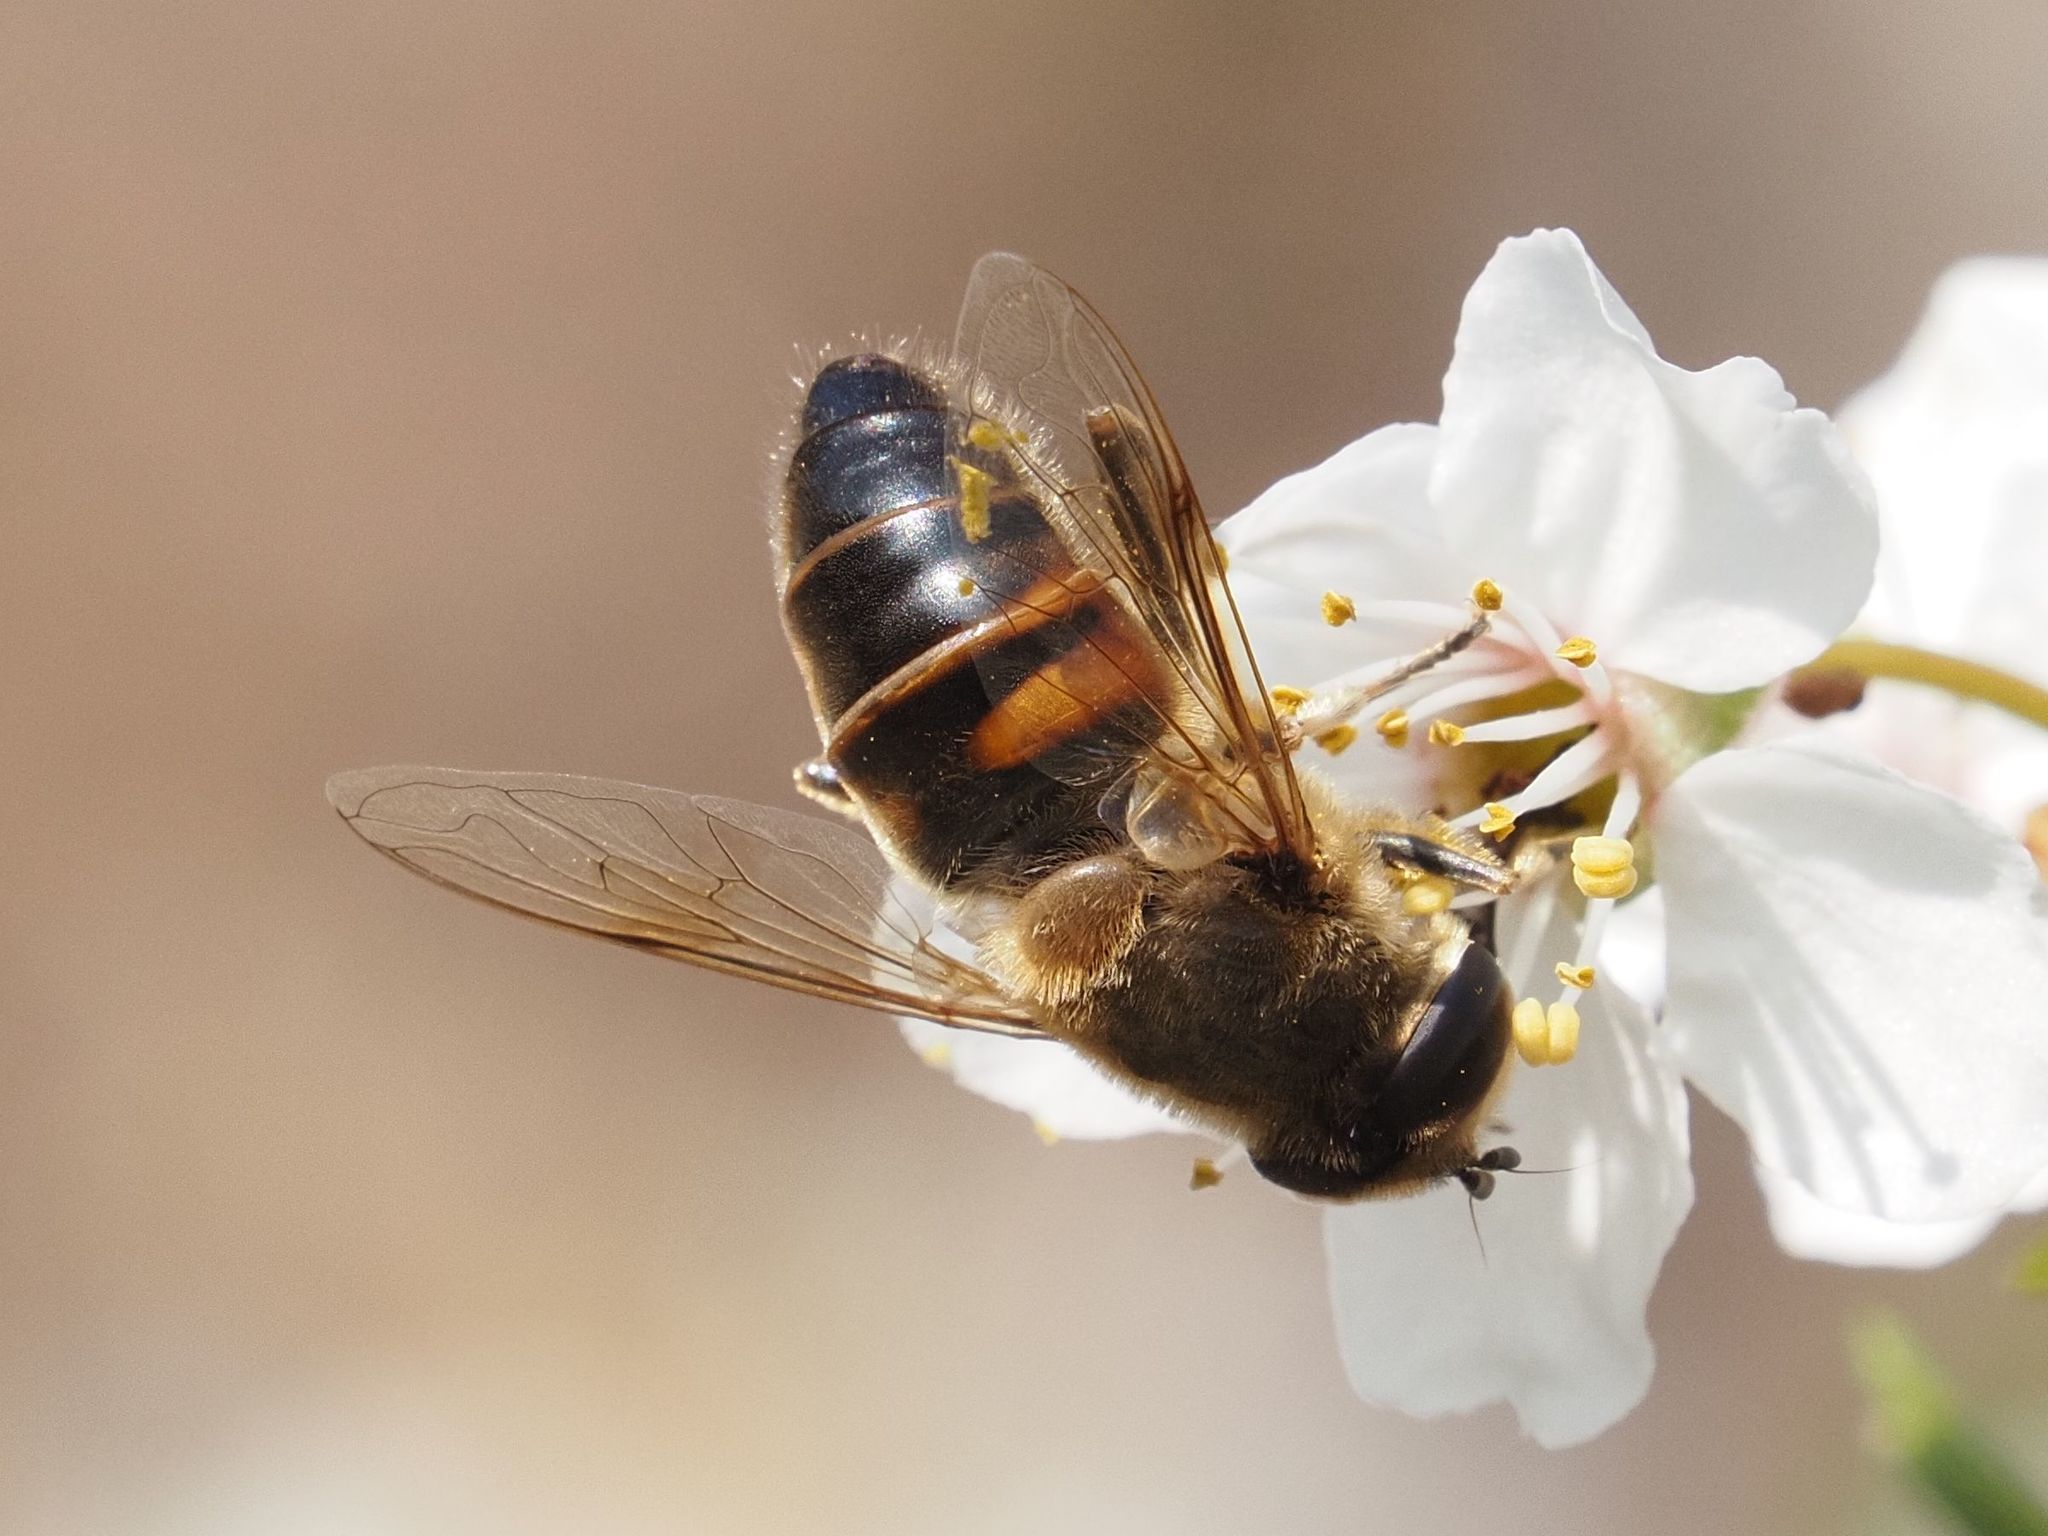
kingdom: Animalia
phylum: Arthropoda
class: Insecta
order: Diptera
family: Syrphidae
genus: Eristalis
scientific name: Eristalis tenax
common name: Drone fly
